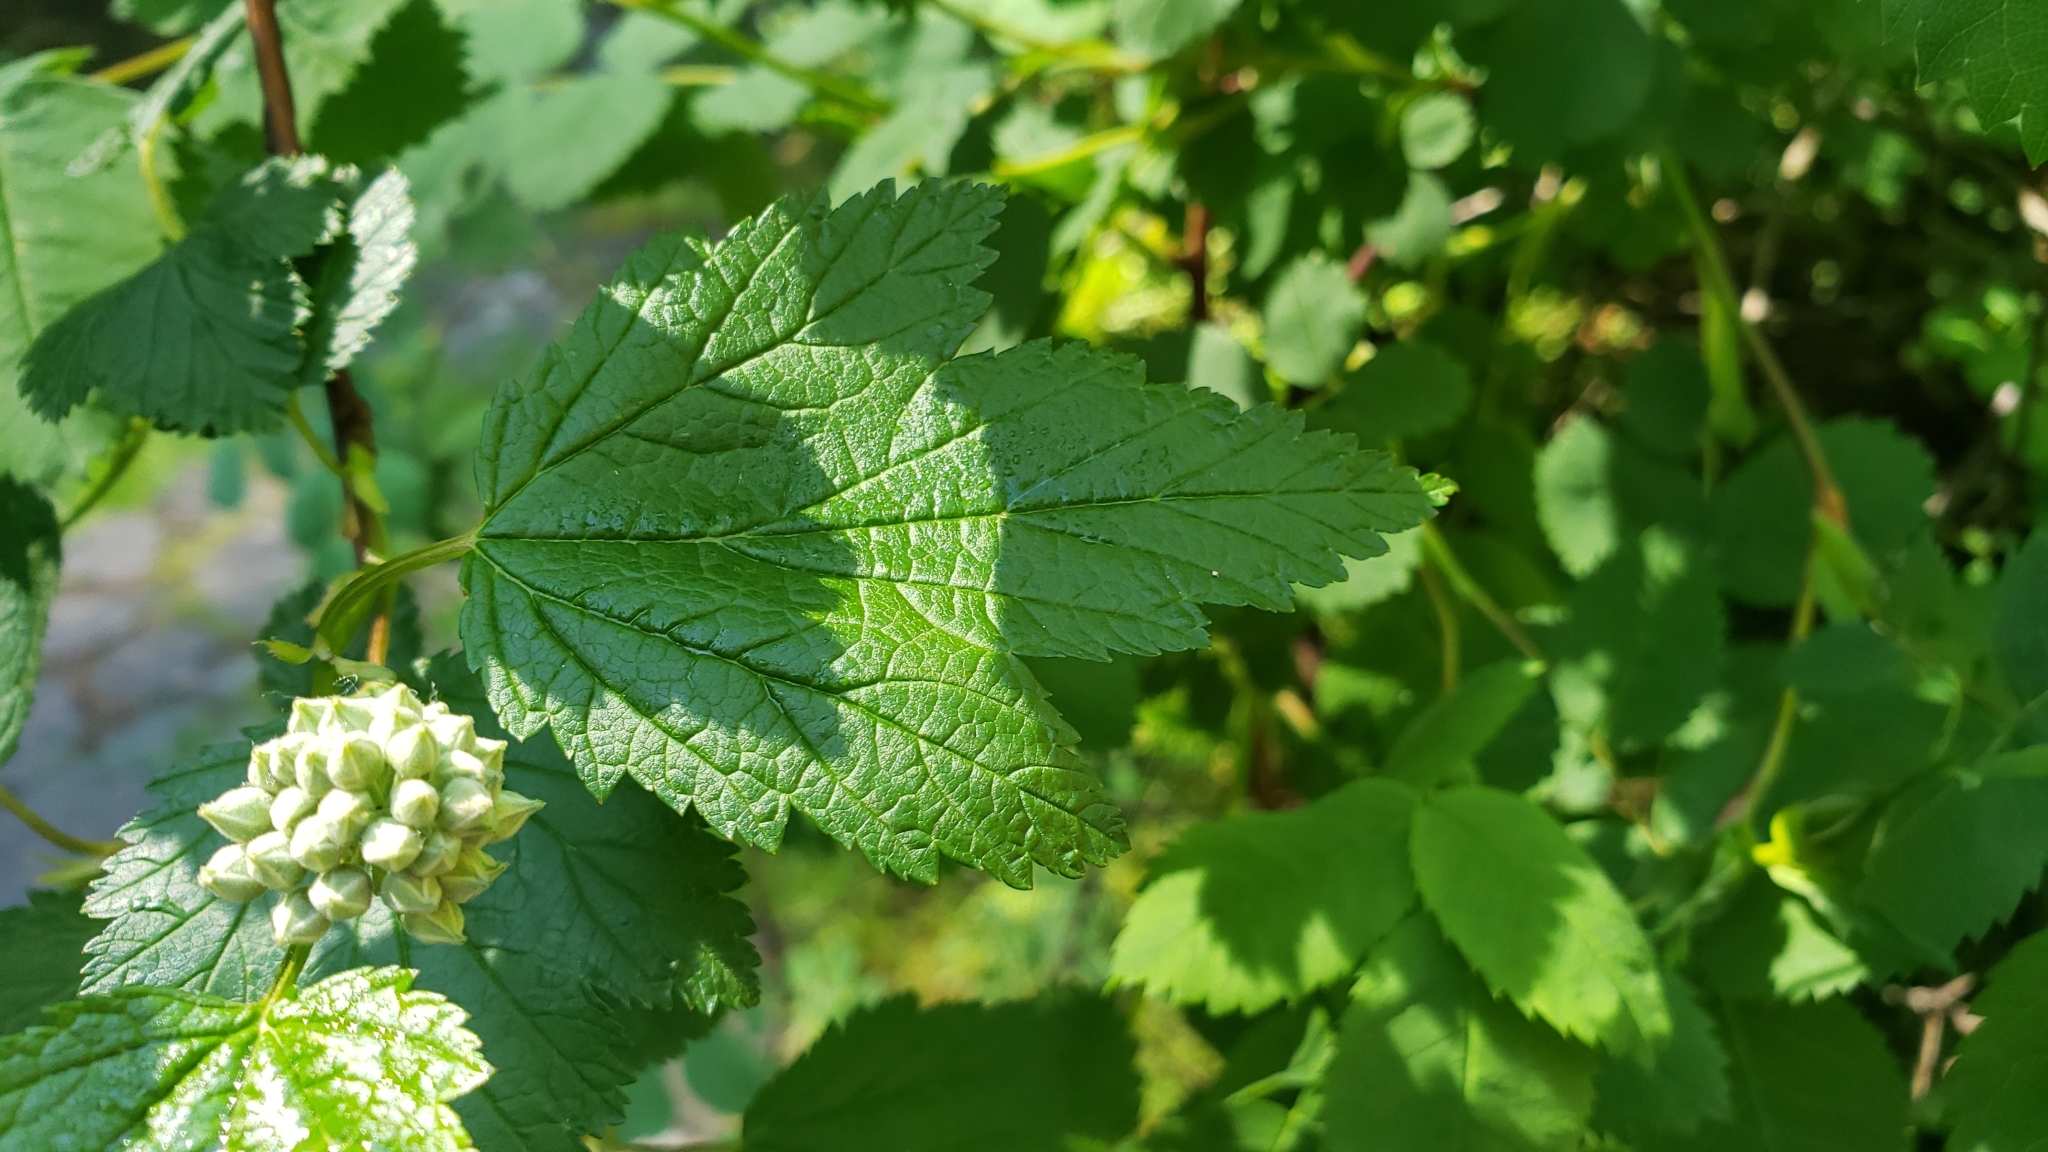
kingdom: Plantae
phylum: Tracheophyta
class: Magnoliopsida
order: Rosales
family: Rosaceae
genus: Physocarpus
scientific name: Physocarpus capitatus
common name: Pacific ninebark
